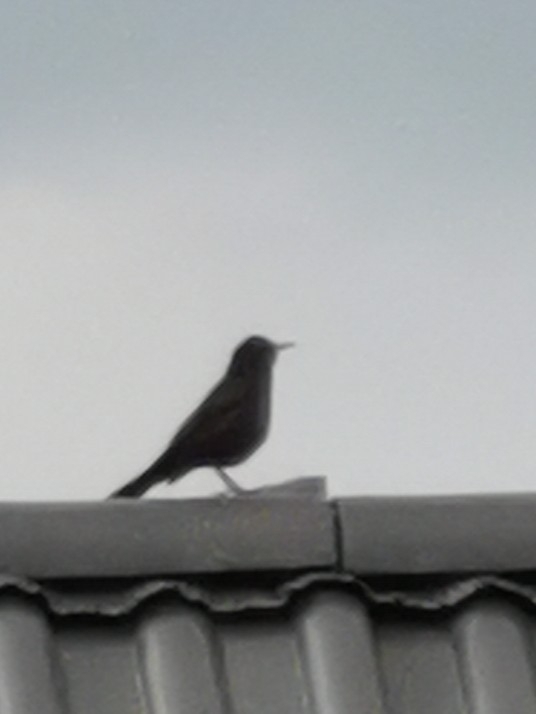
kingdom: Animalia
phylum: Chordata
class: Aves
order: Passeriformes
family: Turdidae
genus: Turdus
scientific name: Turdus merula
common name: Common blackbird
